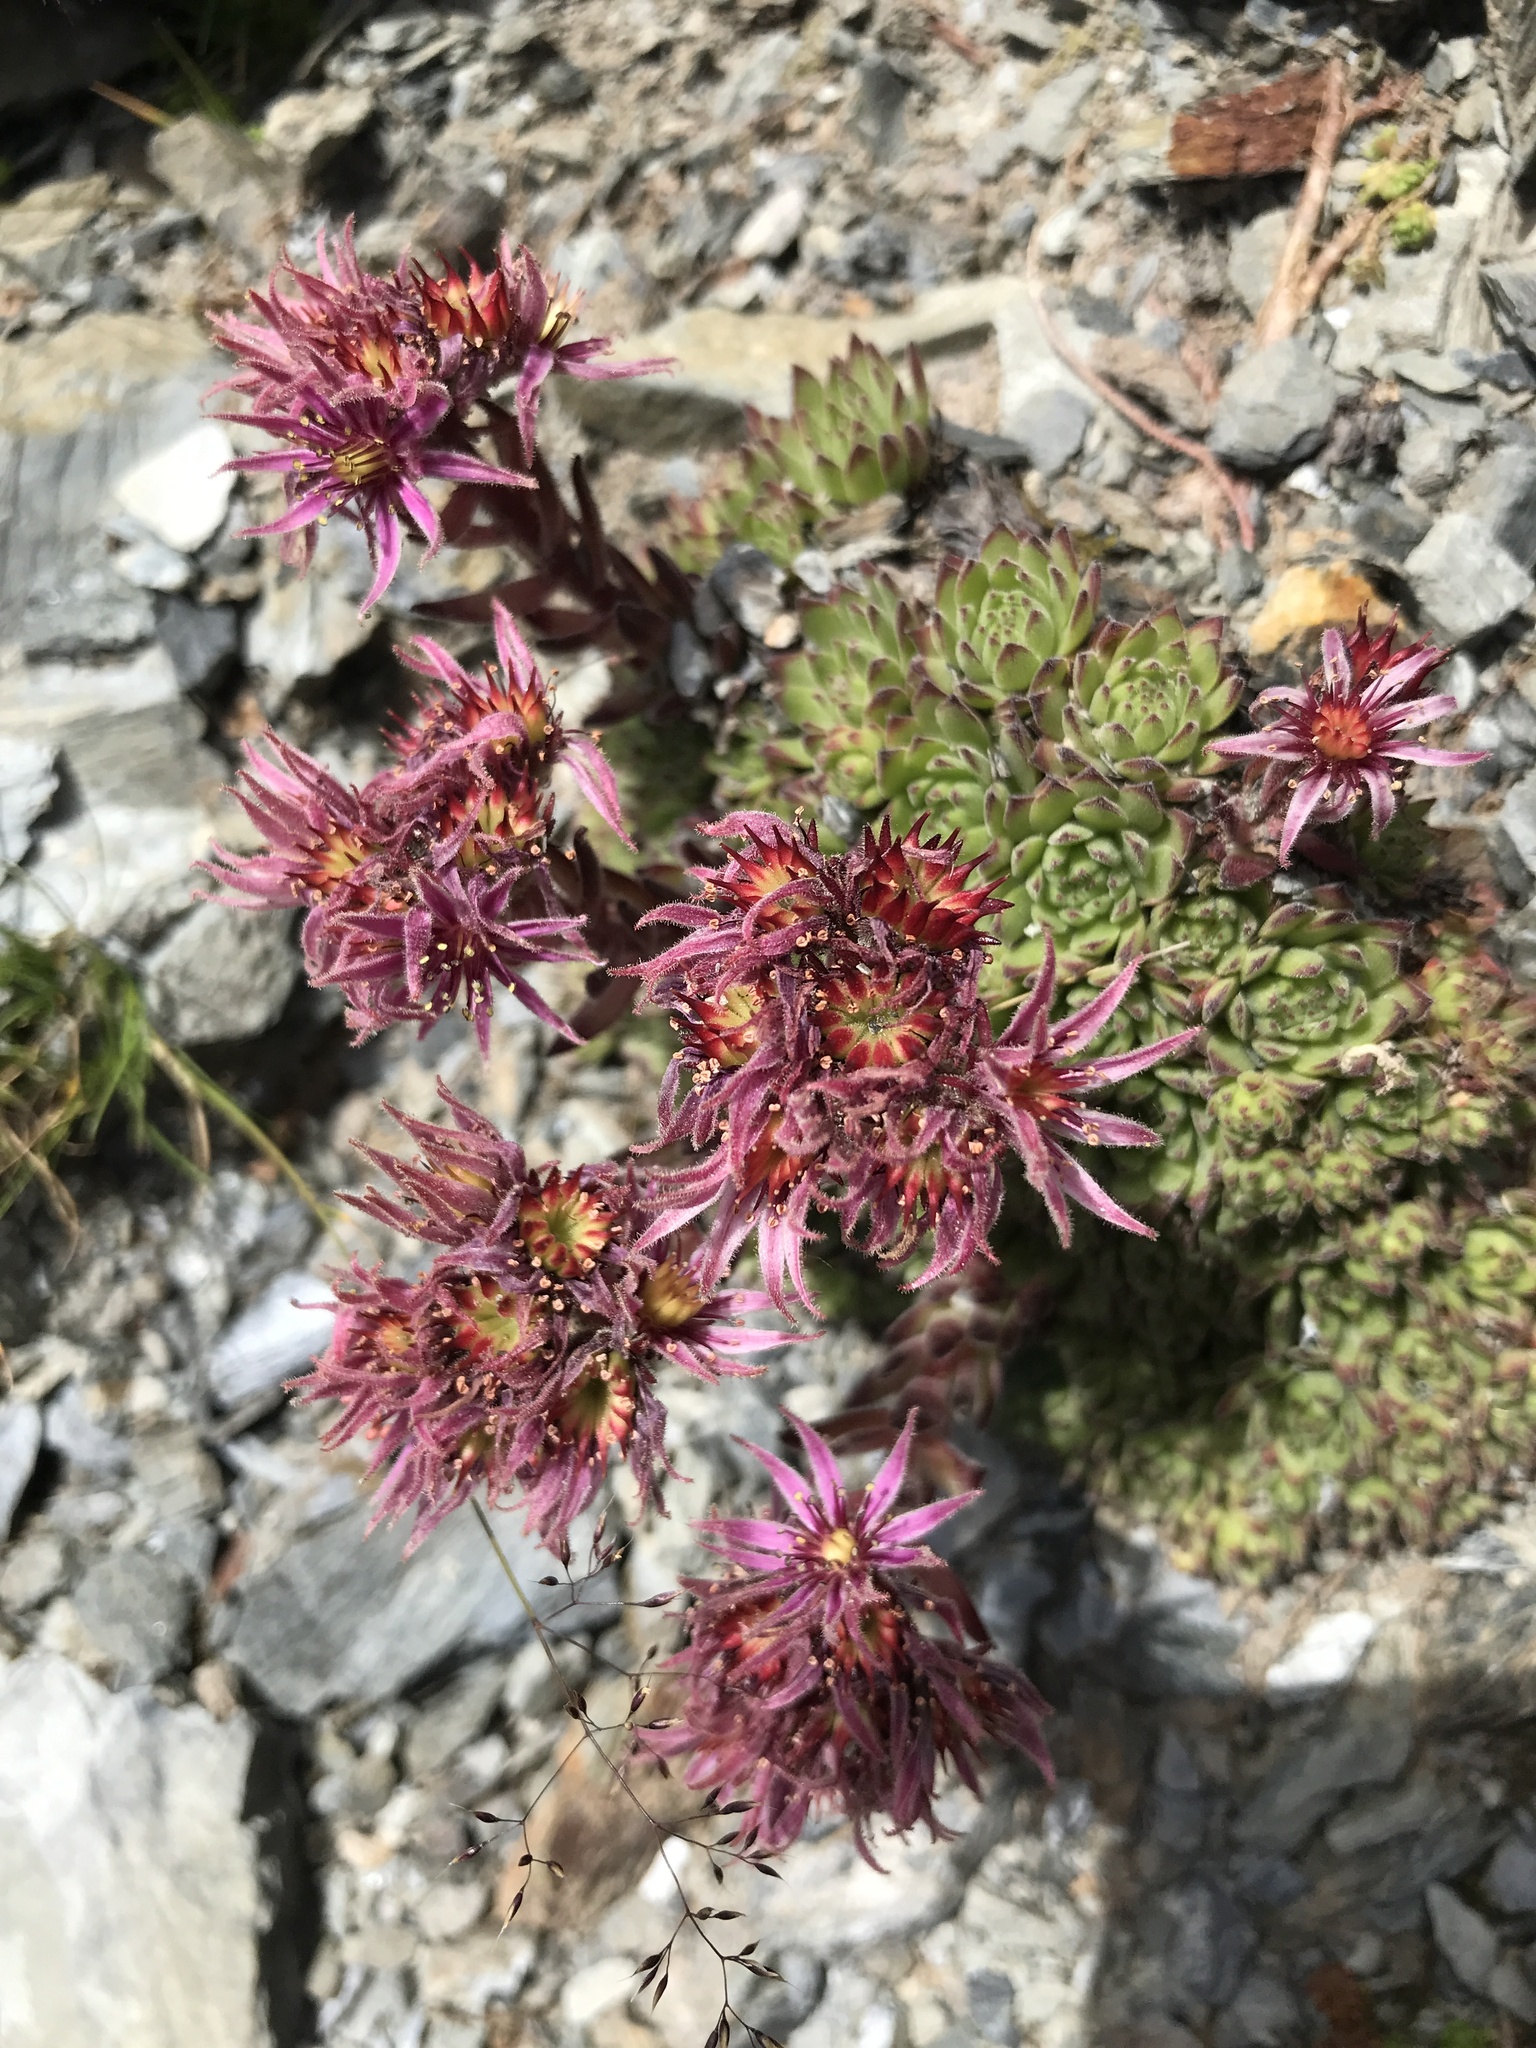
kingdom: Plantae
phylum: Tracheophyta
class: Magnoliopsida
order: Saxifragales
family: Crassulaceae
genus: Sempervivum
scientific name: Sempervivum montanum
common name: Mountain house-leek
